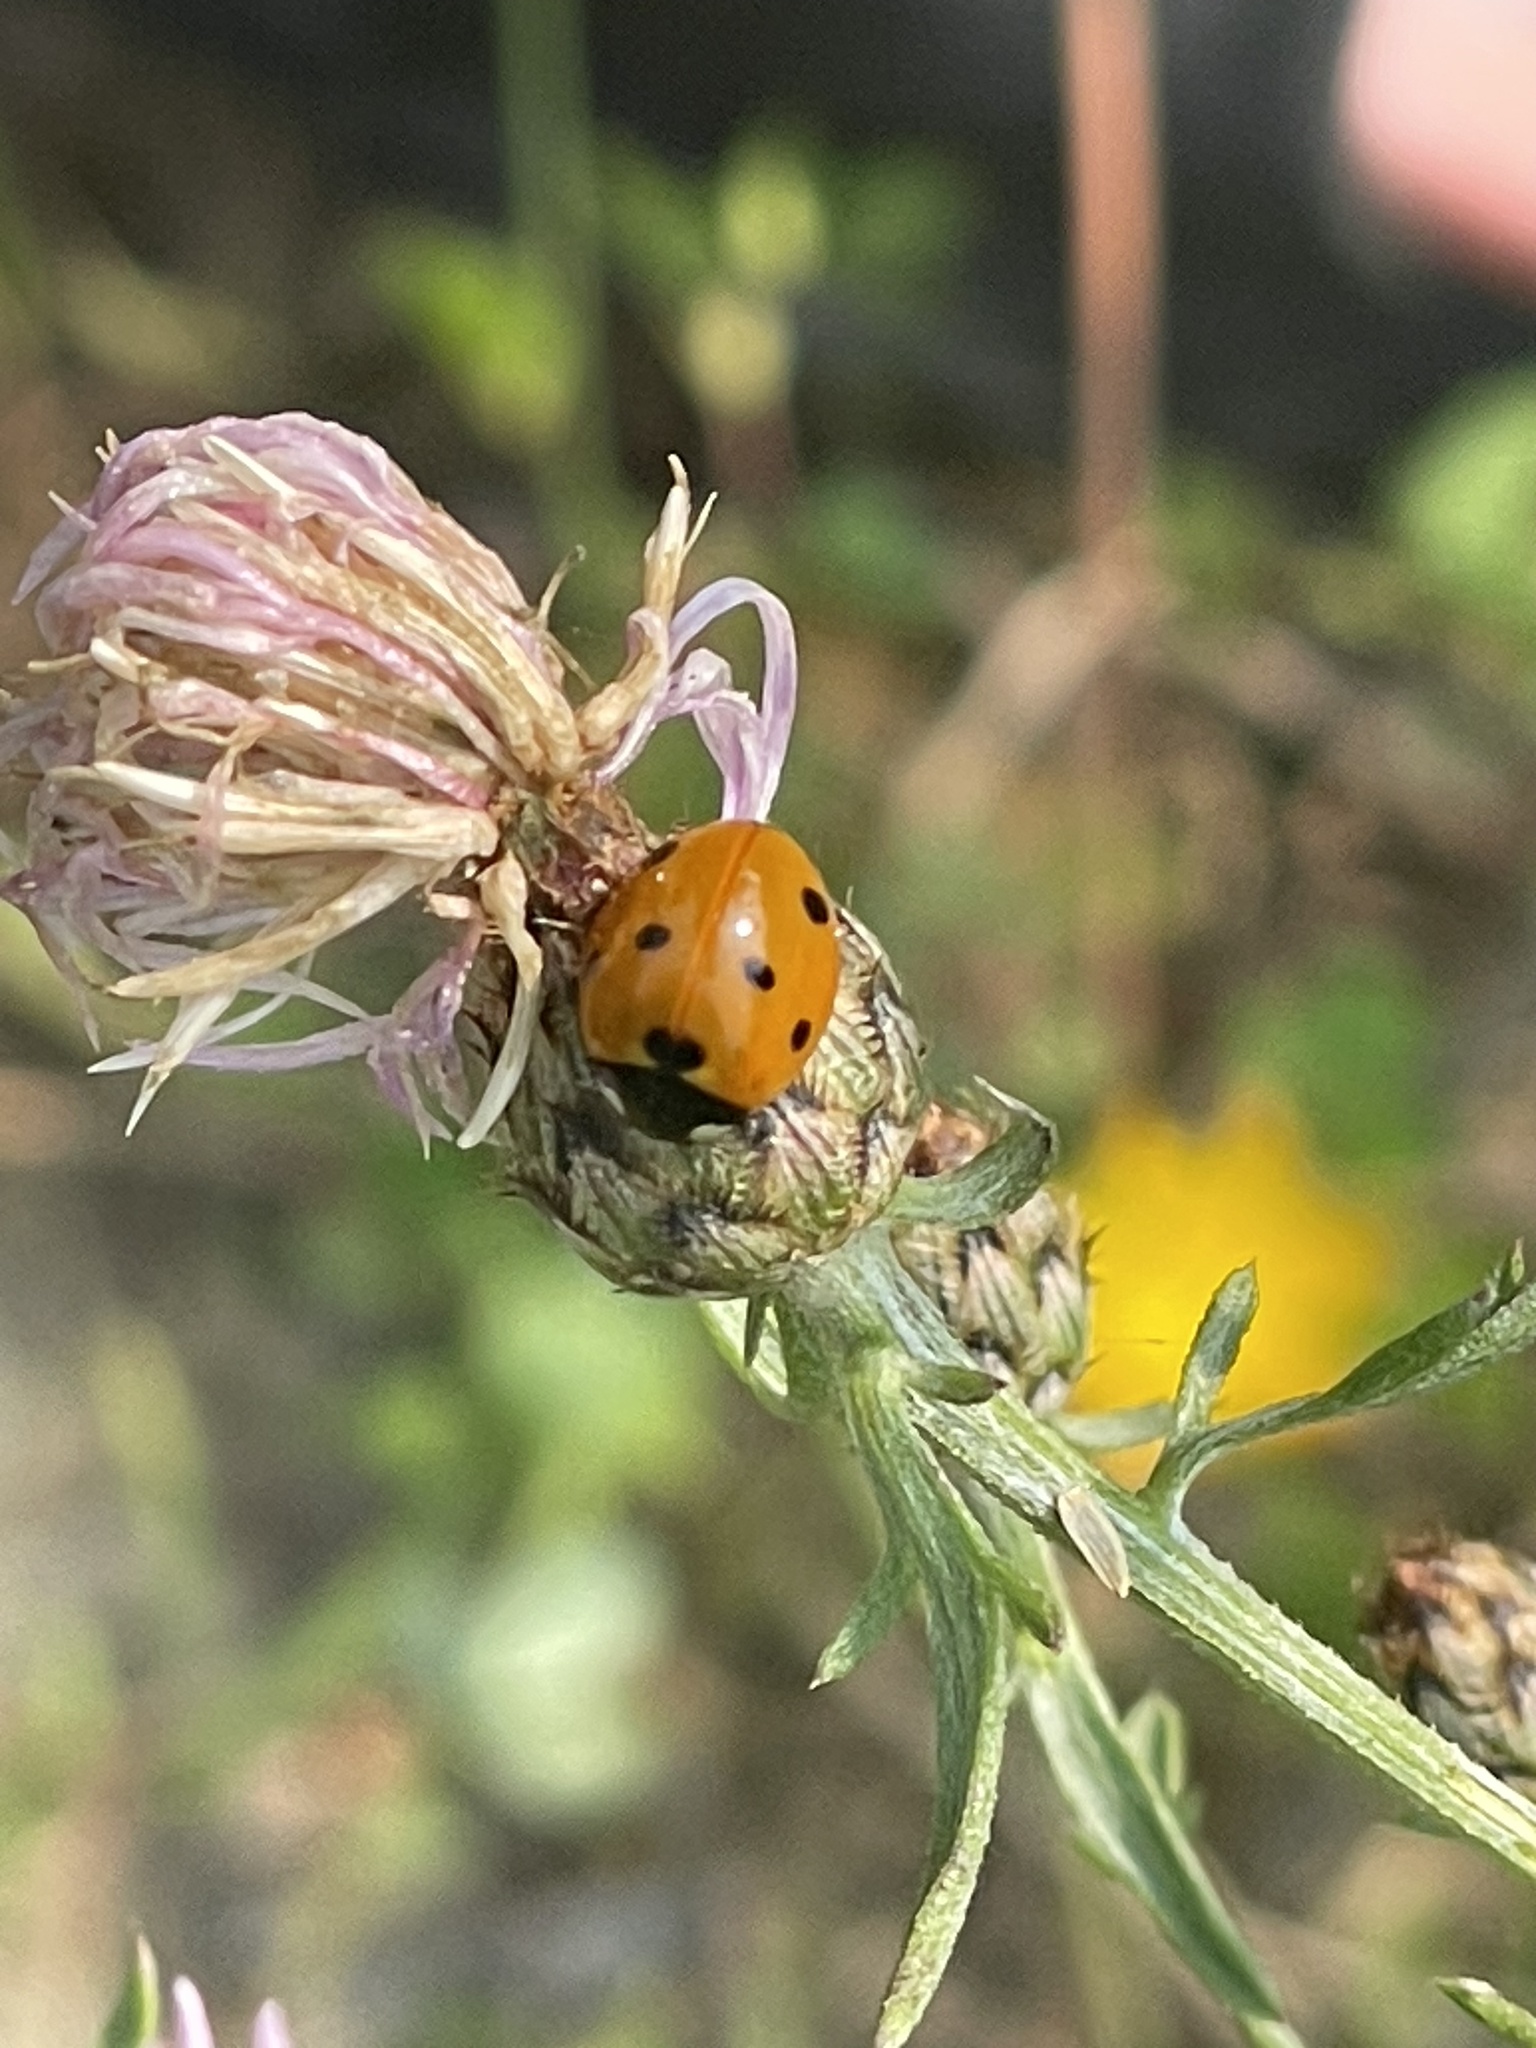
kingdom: Animalia
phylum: Arthropoda
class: Insecta
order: Coleoptera
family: Coccinellidae
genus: Coccinella
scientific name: Coccinella septempunctata
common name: Sevenspotted lady beetle
